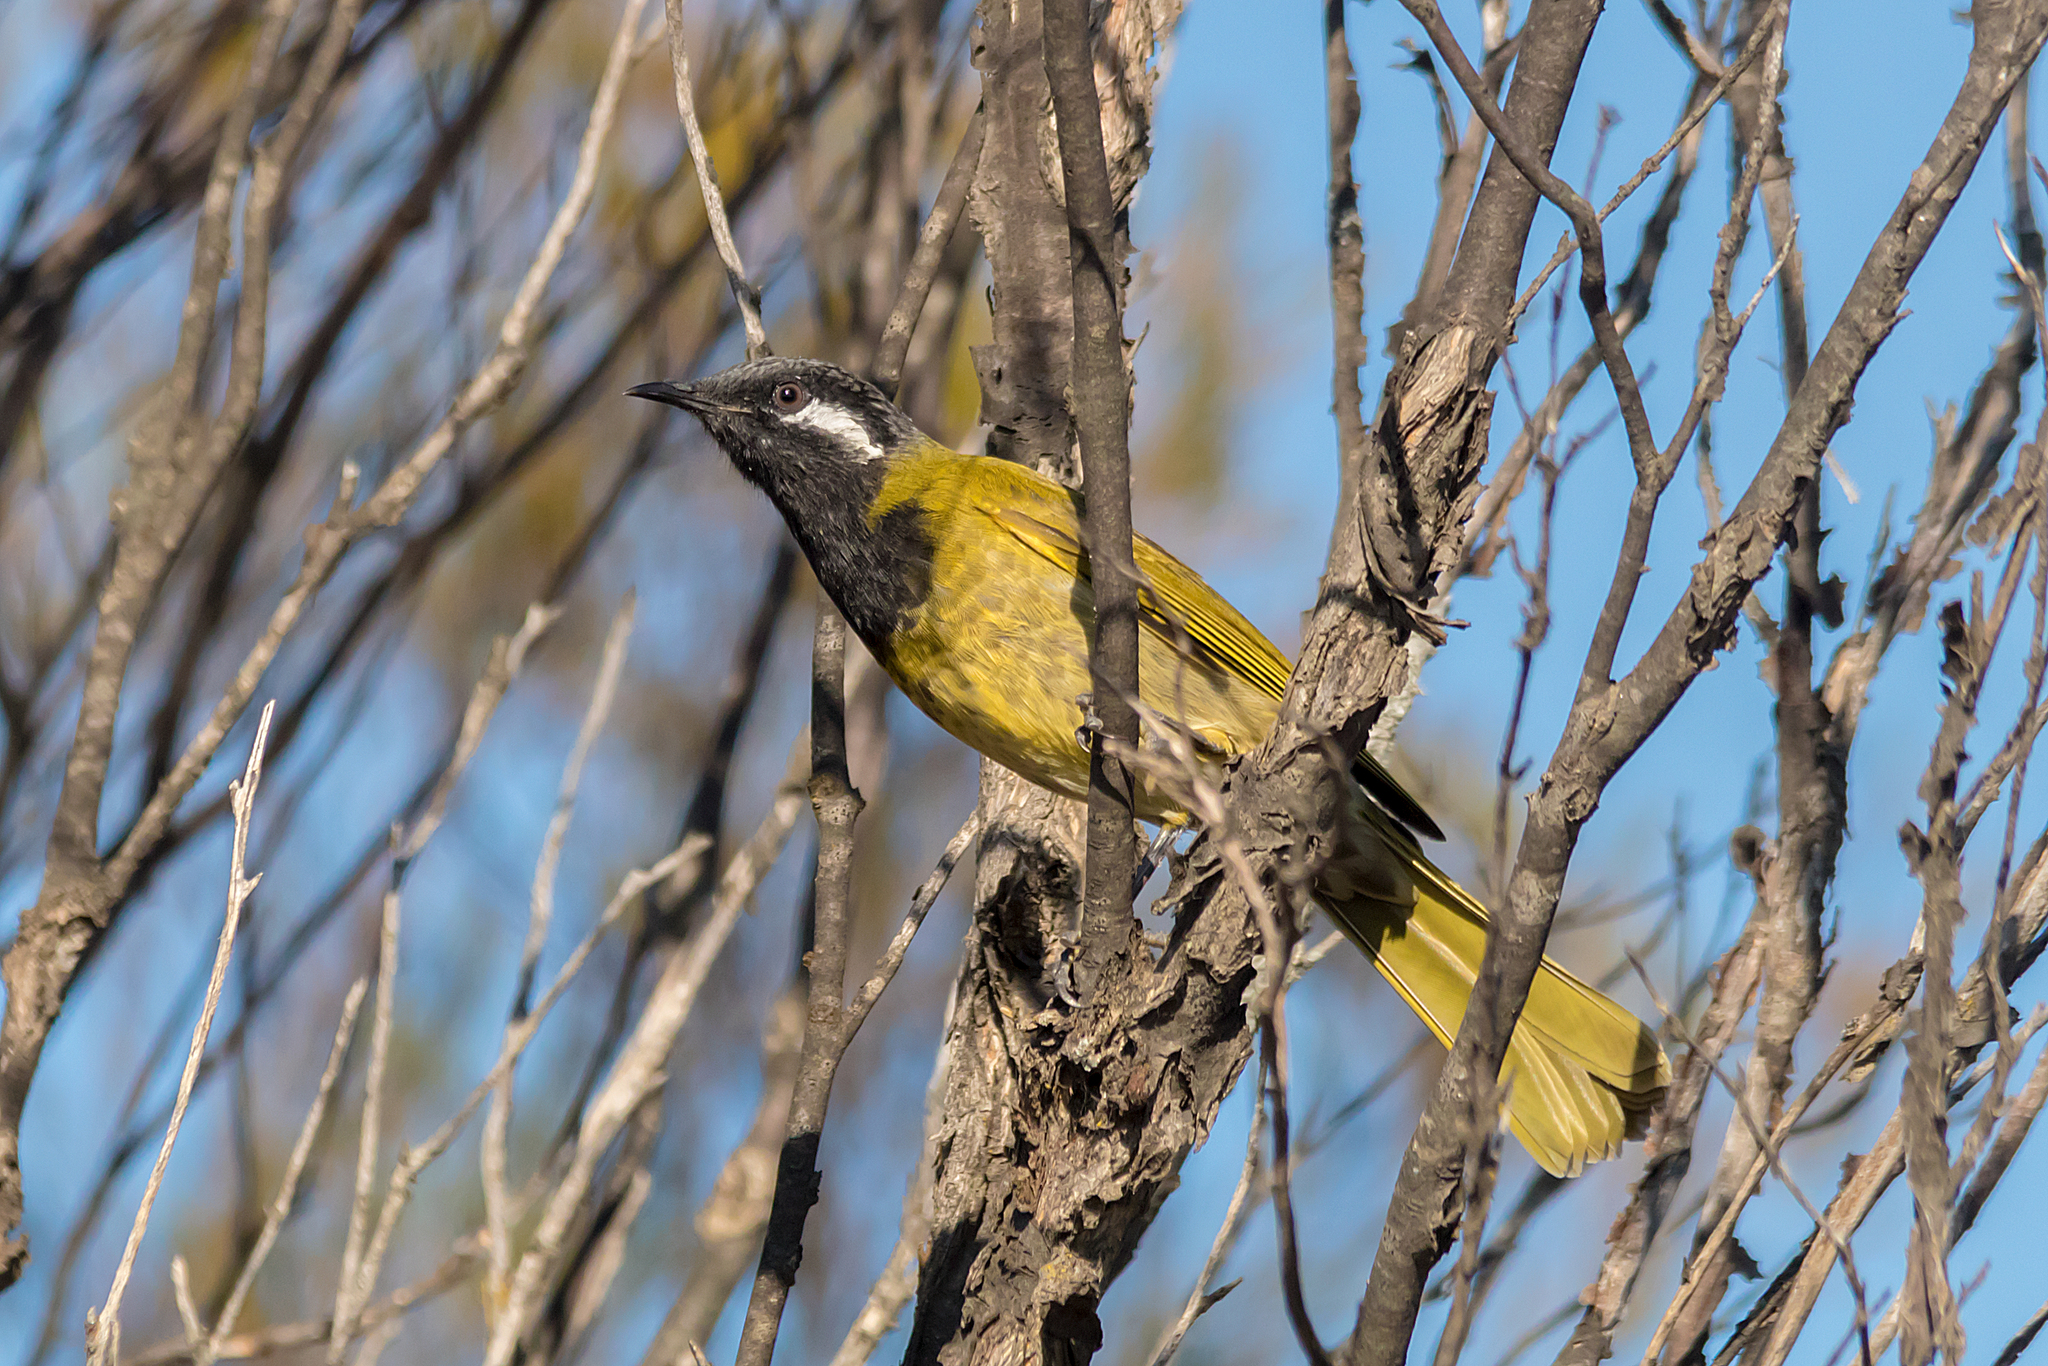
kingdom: Animalia
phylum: Chordata
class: Aves
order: Passeriformes
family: Meliphagidae
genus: Nesoptilotis
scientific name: Nesoptilotis leucotis
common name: White-eared honeyeater
